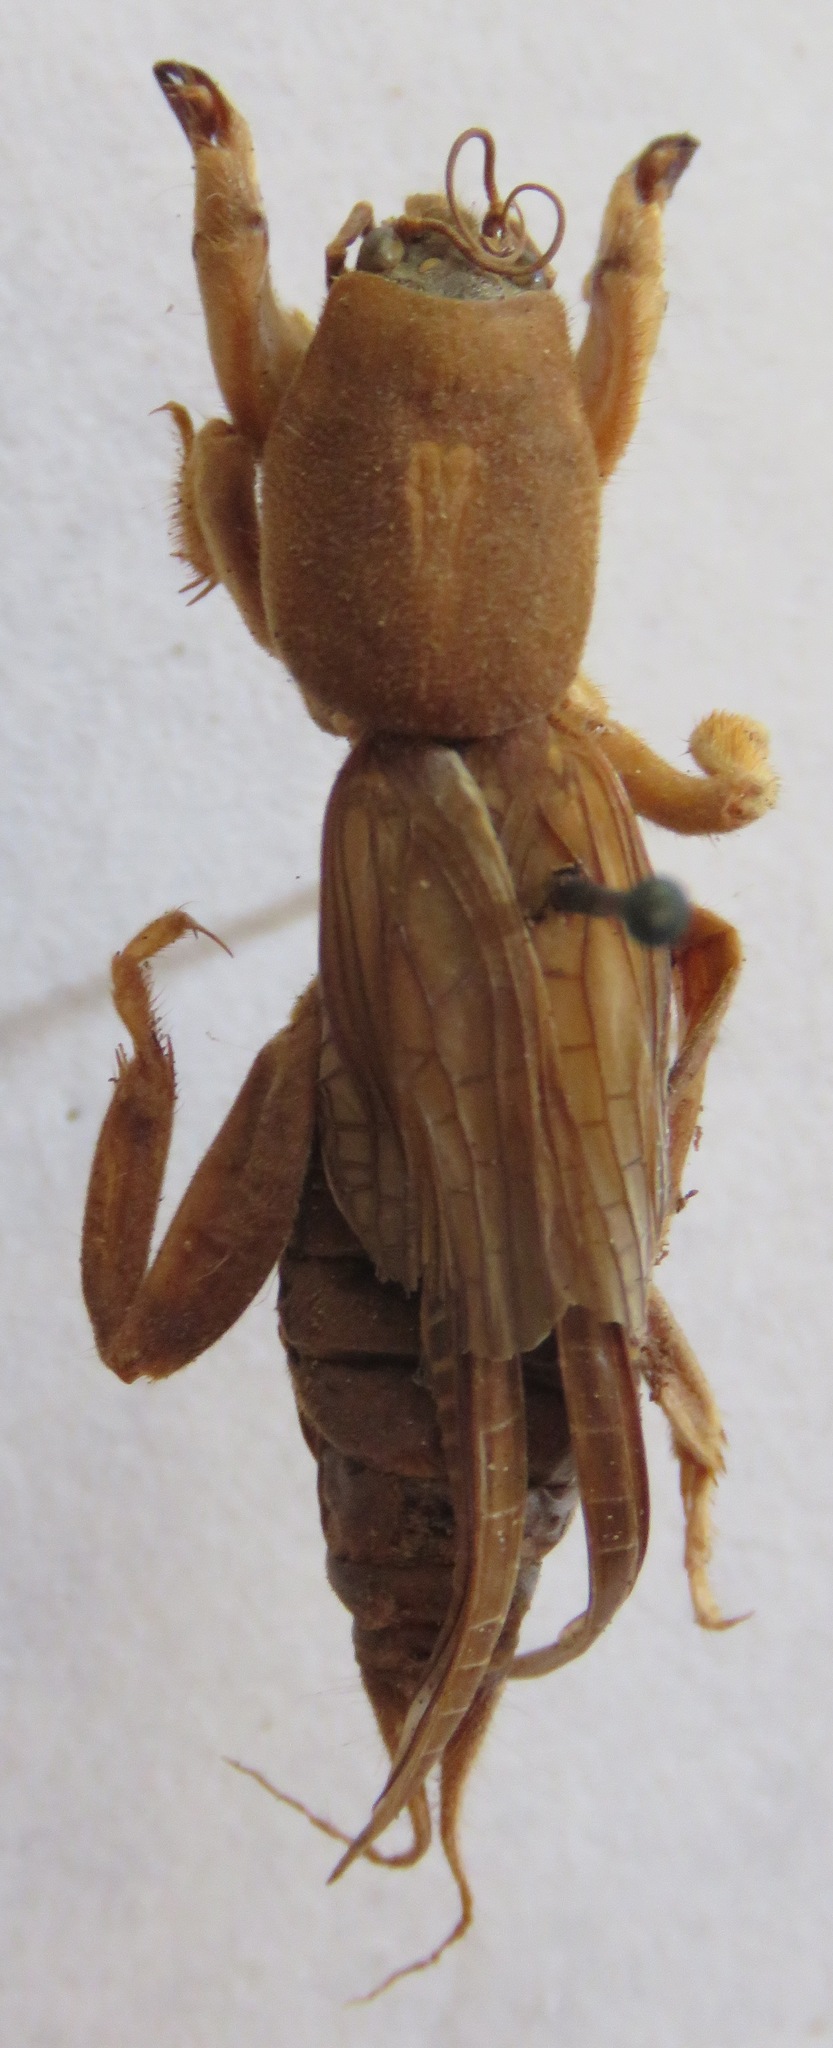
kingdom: Animalia
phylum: Arthropoda
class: Insecta
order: Orthoptera
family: Gryllotalpidae
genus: Neocurtilla
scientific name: Neocurtilla hexadactyla
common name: Northern mole cricket
